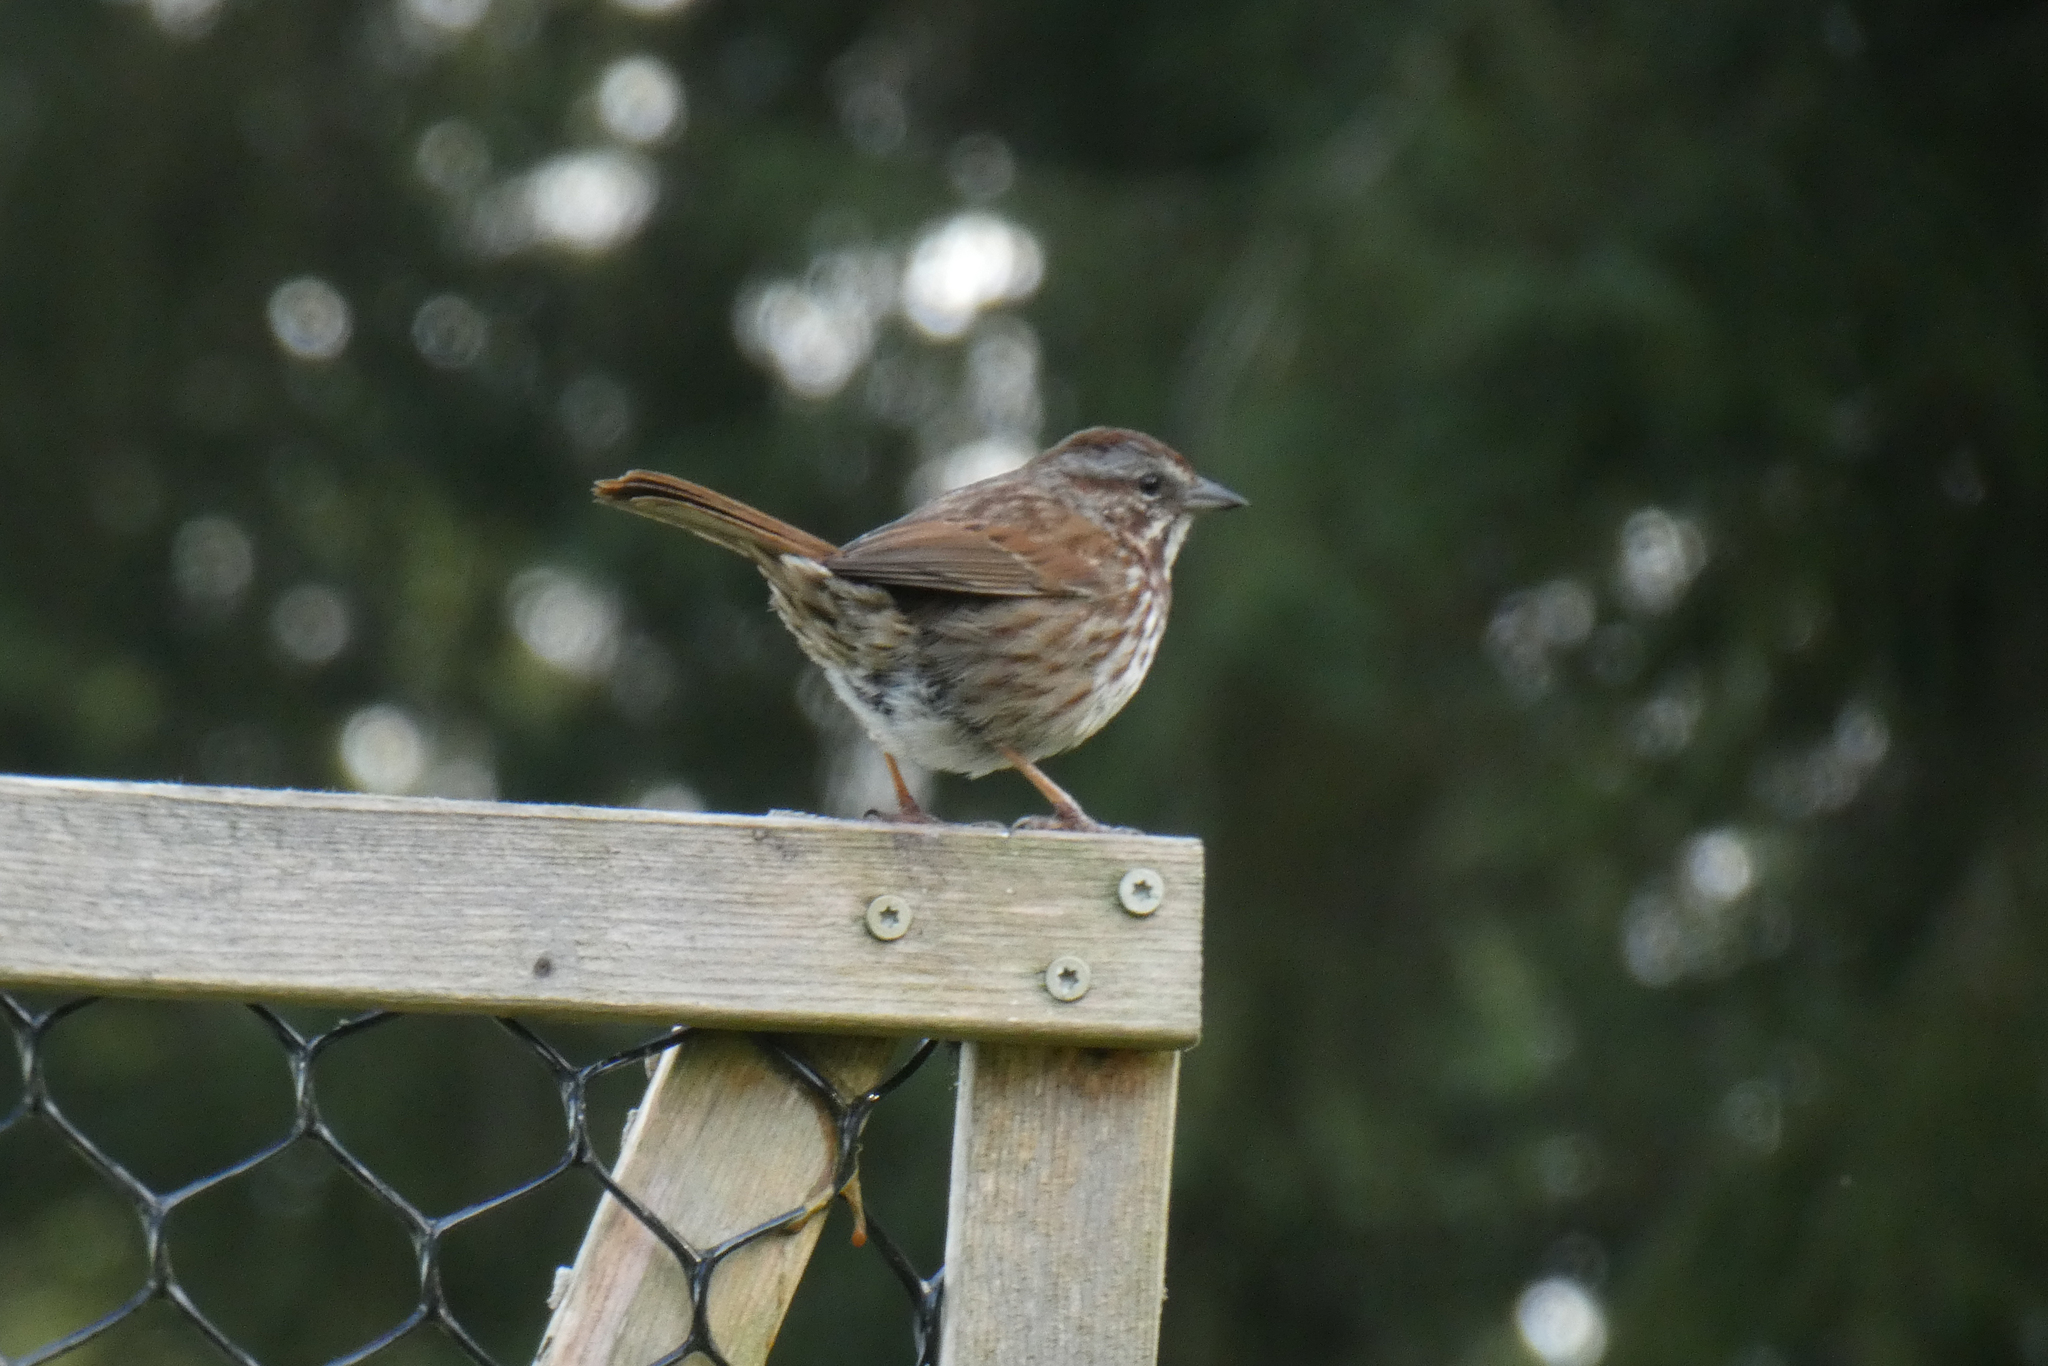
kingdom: Animalia
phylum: Chordata
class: Aves
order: Passeriformes
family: Passerellidae
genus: Melospiza
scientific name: Melospiza melodia
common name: Song sparrow
